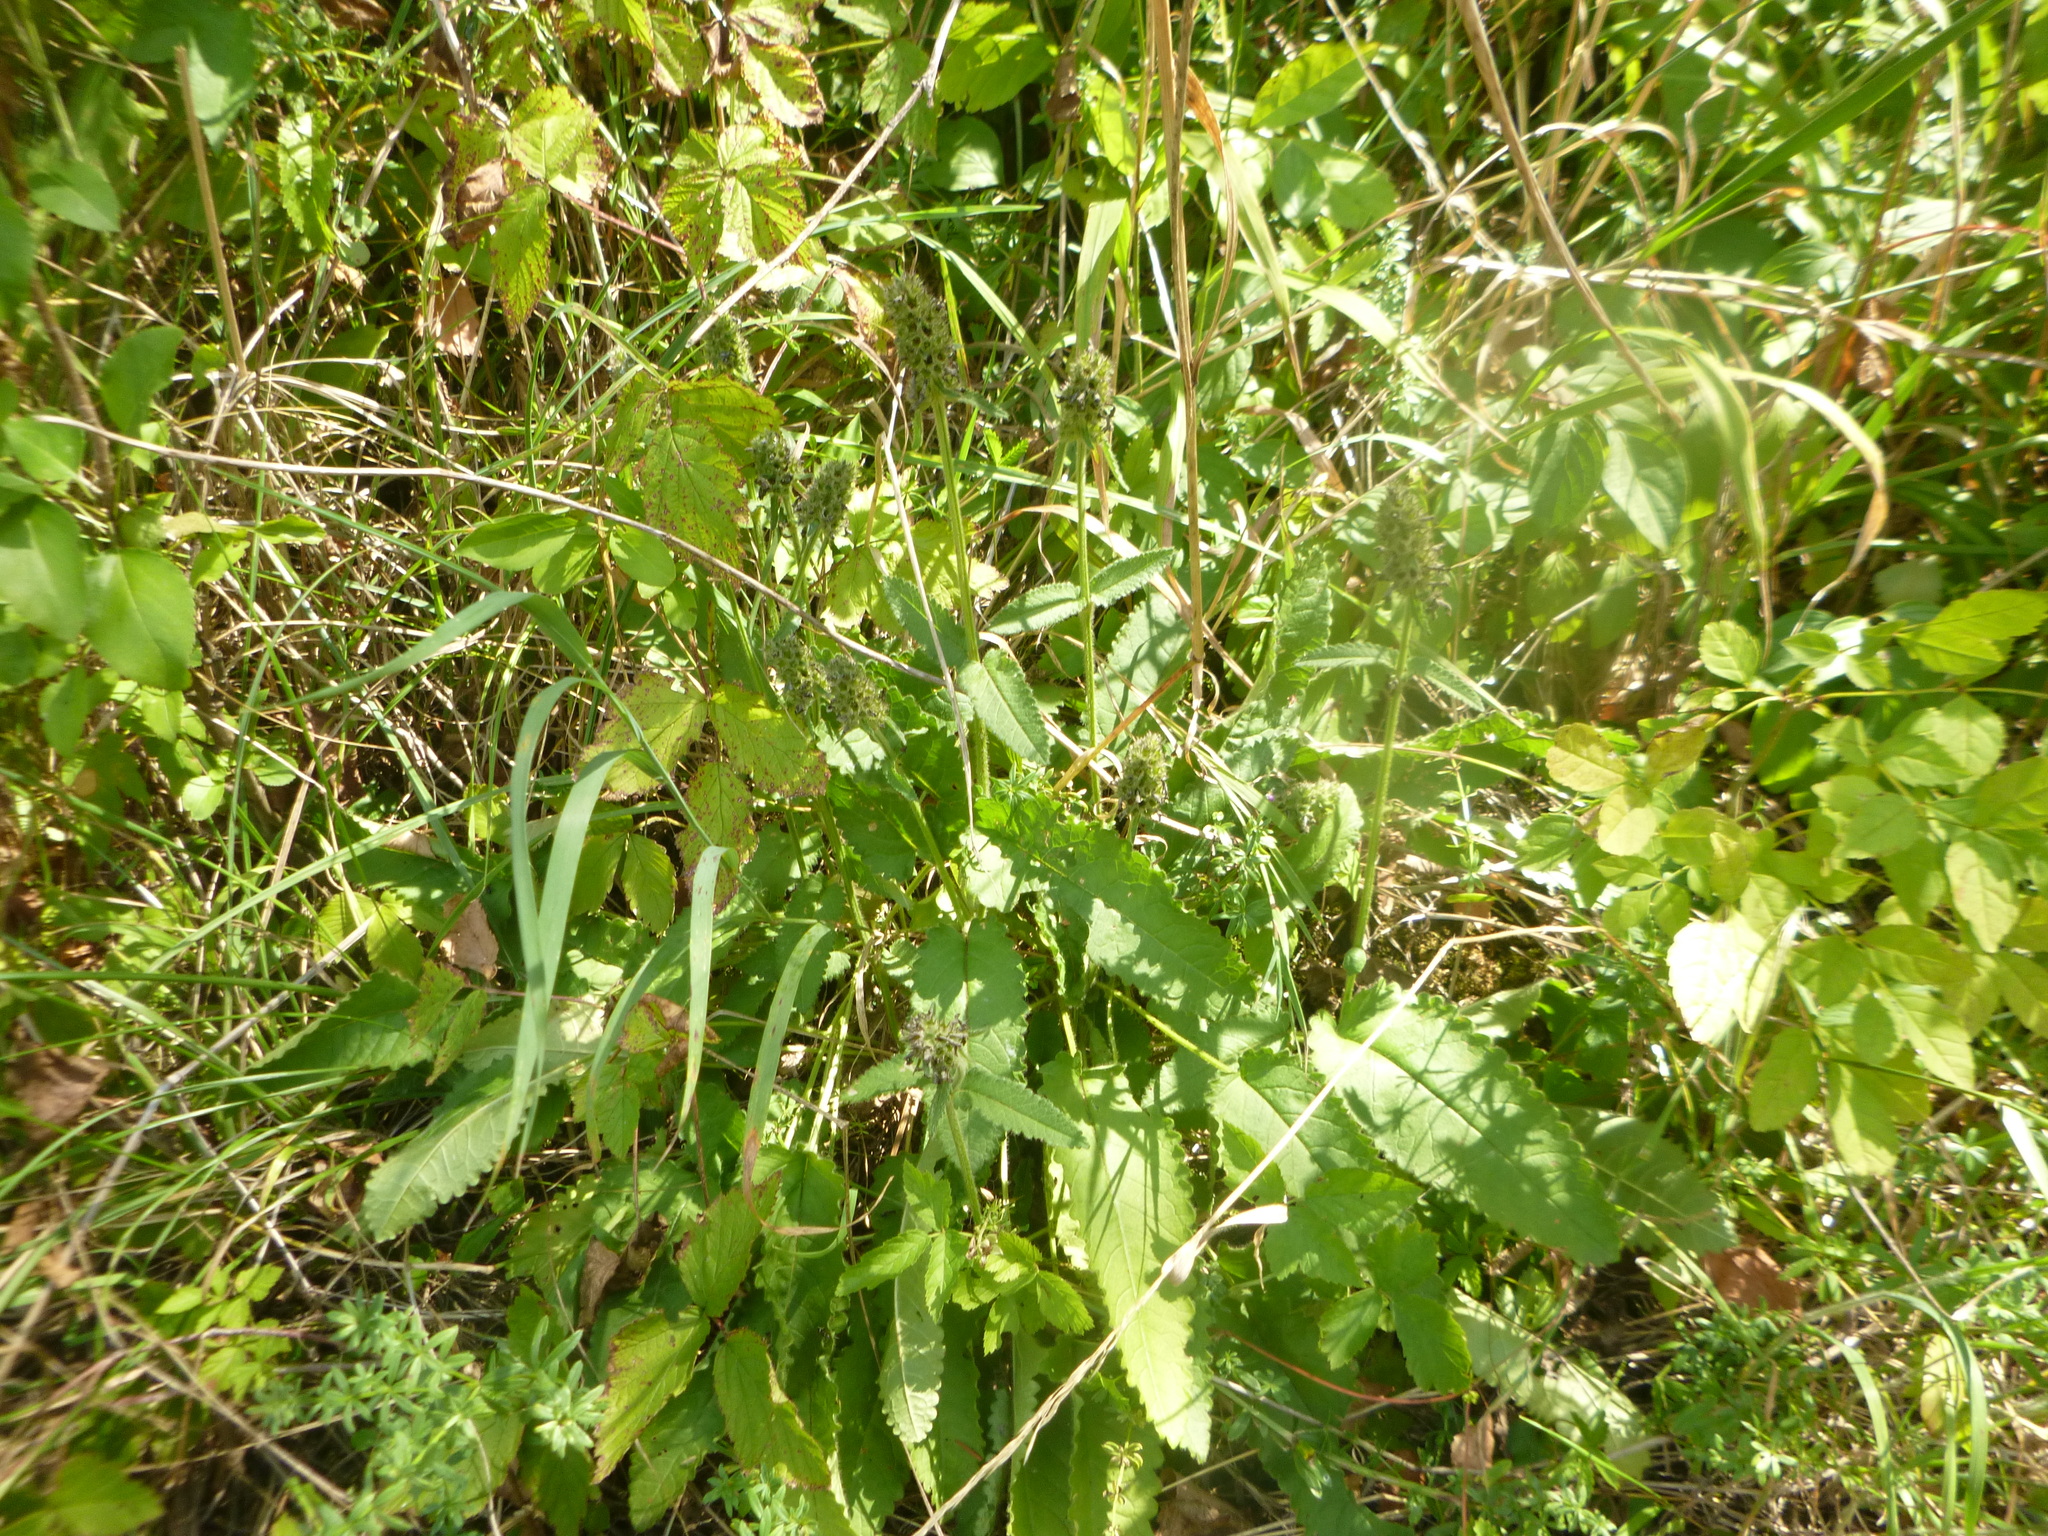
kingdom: Plantae
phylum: Tracheophyta
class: Magnoliopsida
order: Lamiales
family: Lamiaceae
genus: Betonica
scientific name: Betonica officinalis
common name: Bishop's-wort
